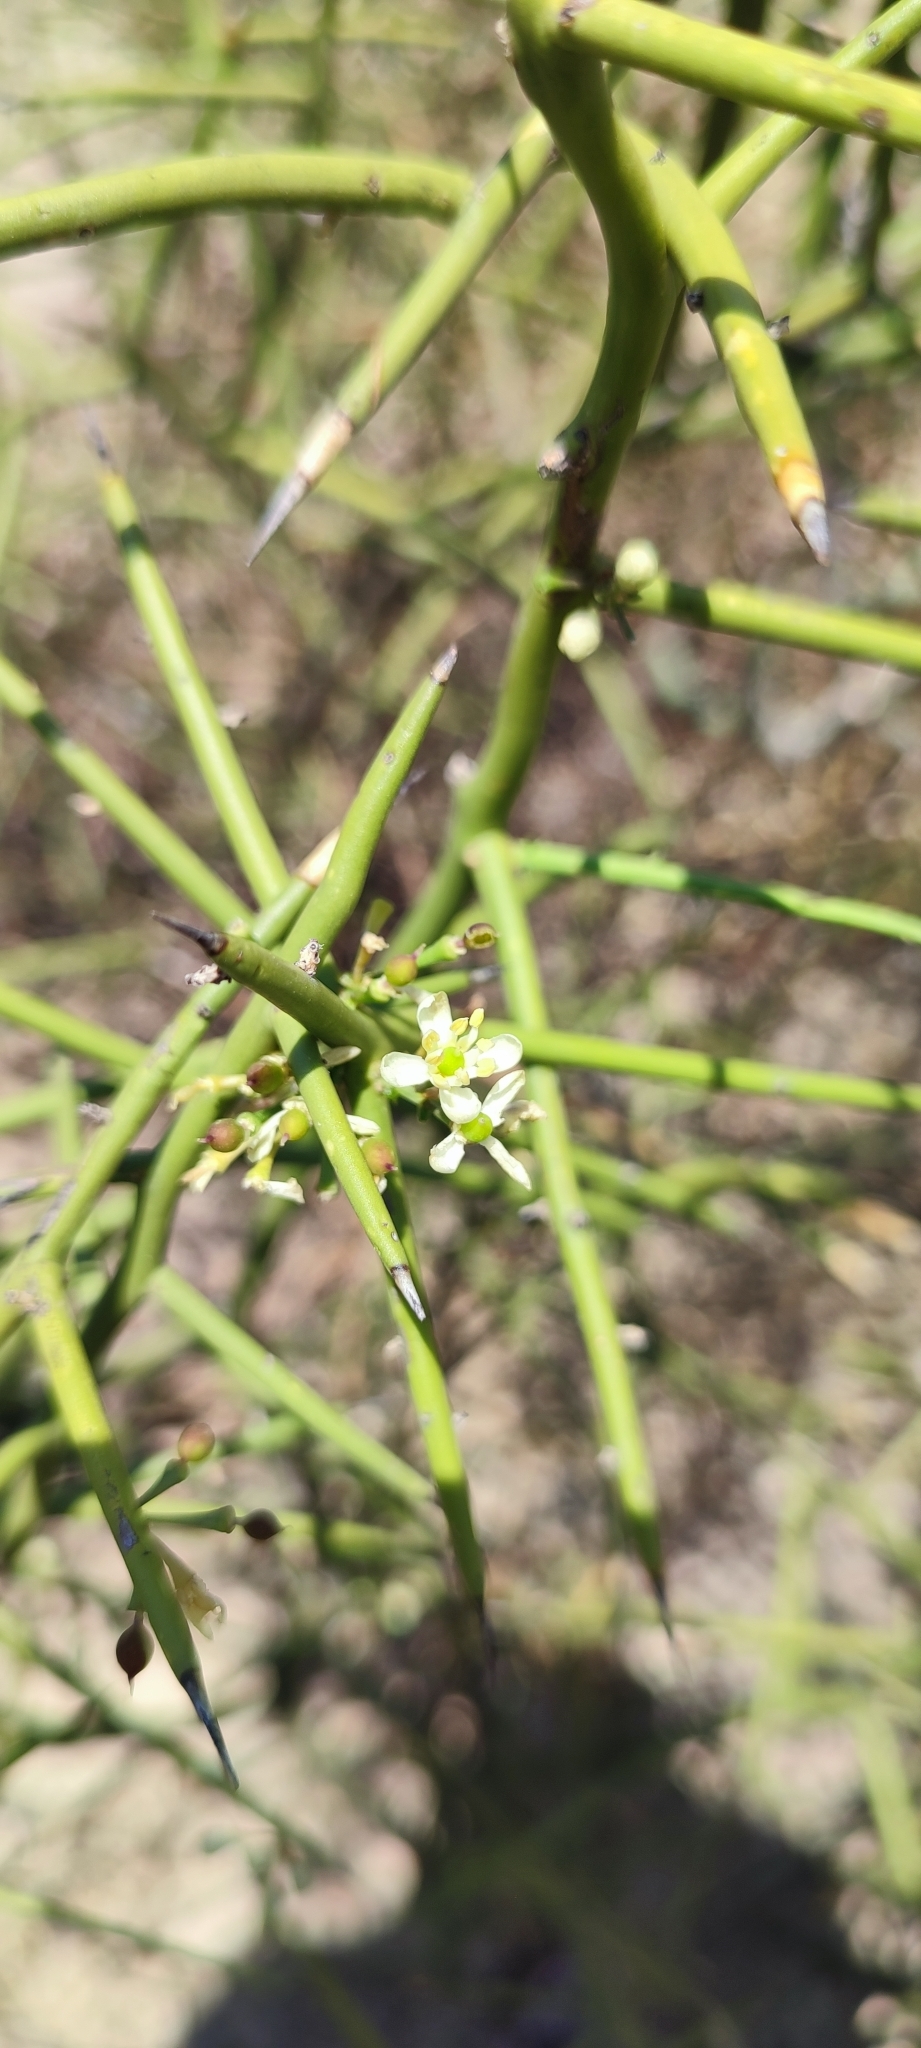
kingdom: Plantae
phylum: Tracheophyta
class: Magnoliopsida
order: Brassicales
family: Koeberliniaceae
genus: Koeberlinia
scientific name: Koeberlinia spinosa
